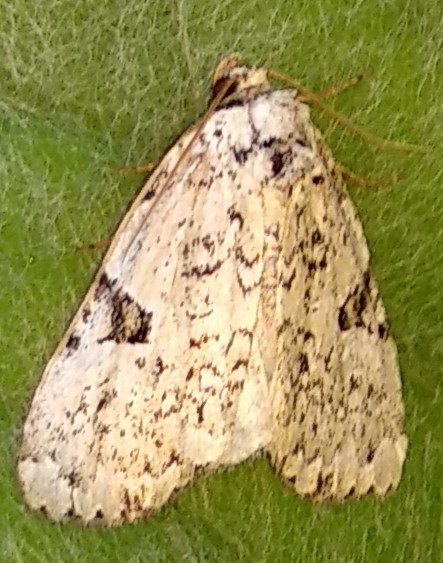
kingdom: Animalia
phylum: Arthropoda
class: Insecta
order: Lepidoptera
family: Noctuidae
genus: Leuconycta
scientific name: Leuconycta diphteroides
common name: Green leuconycta moth
